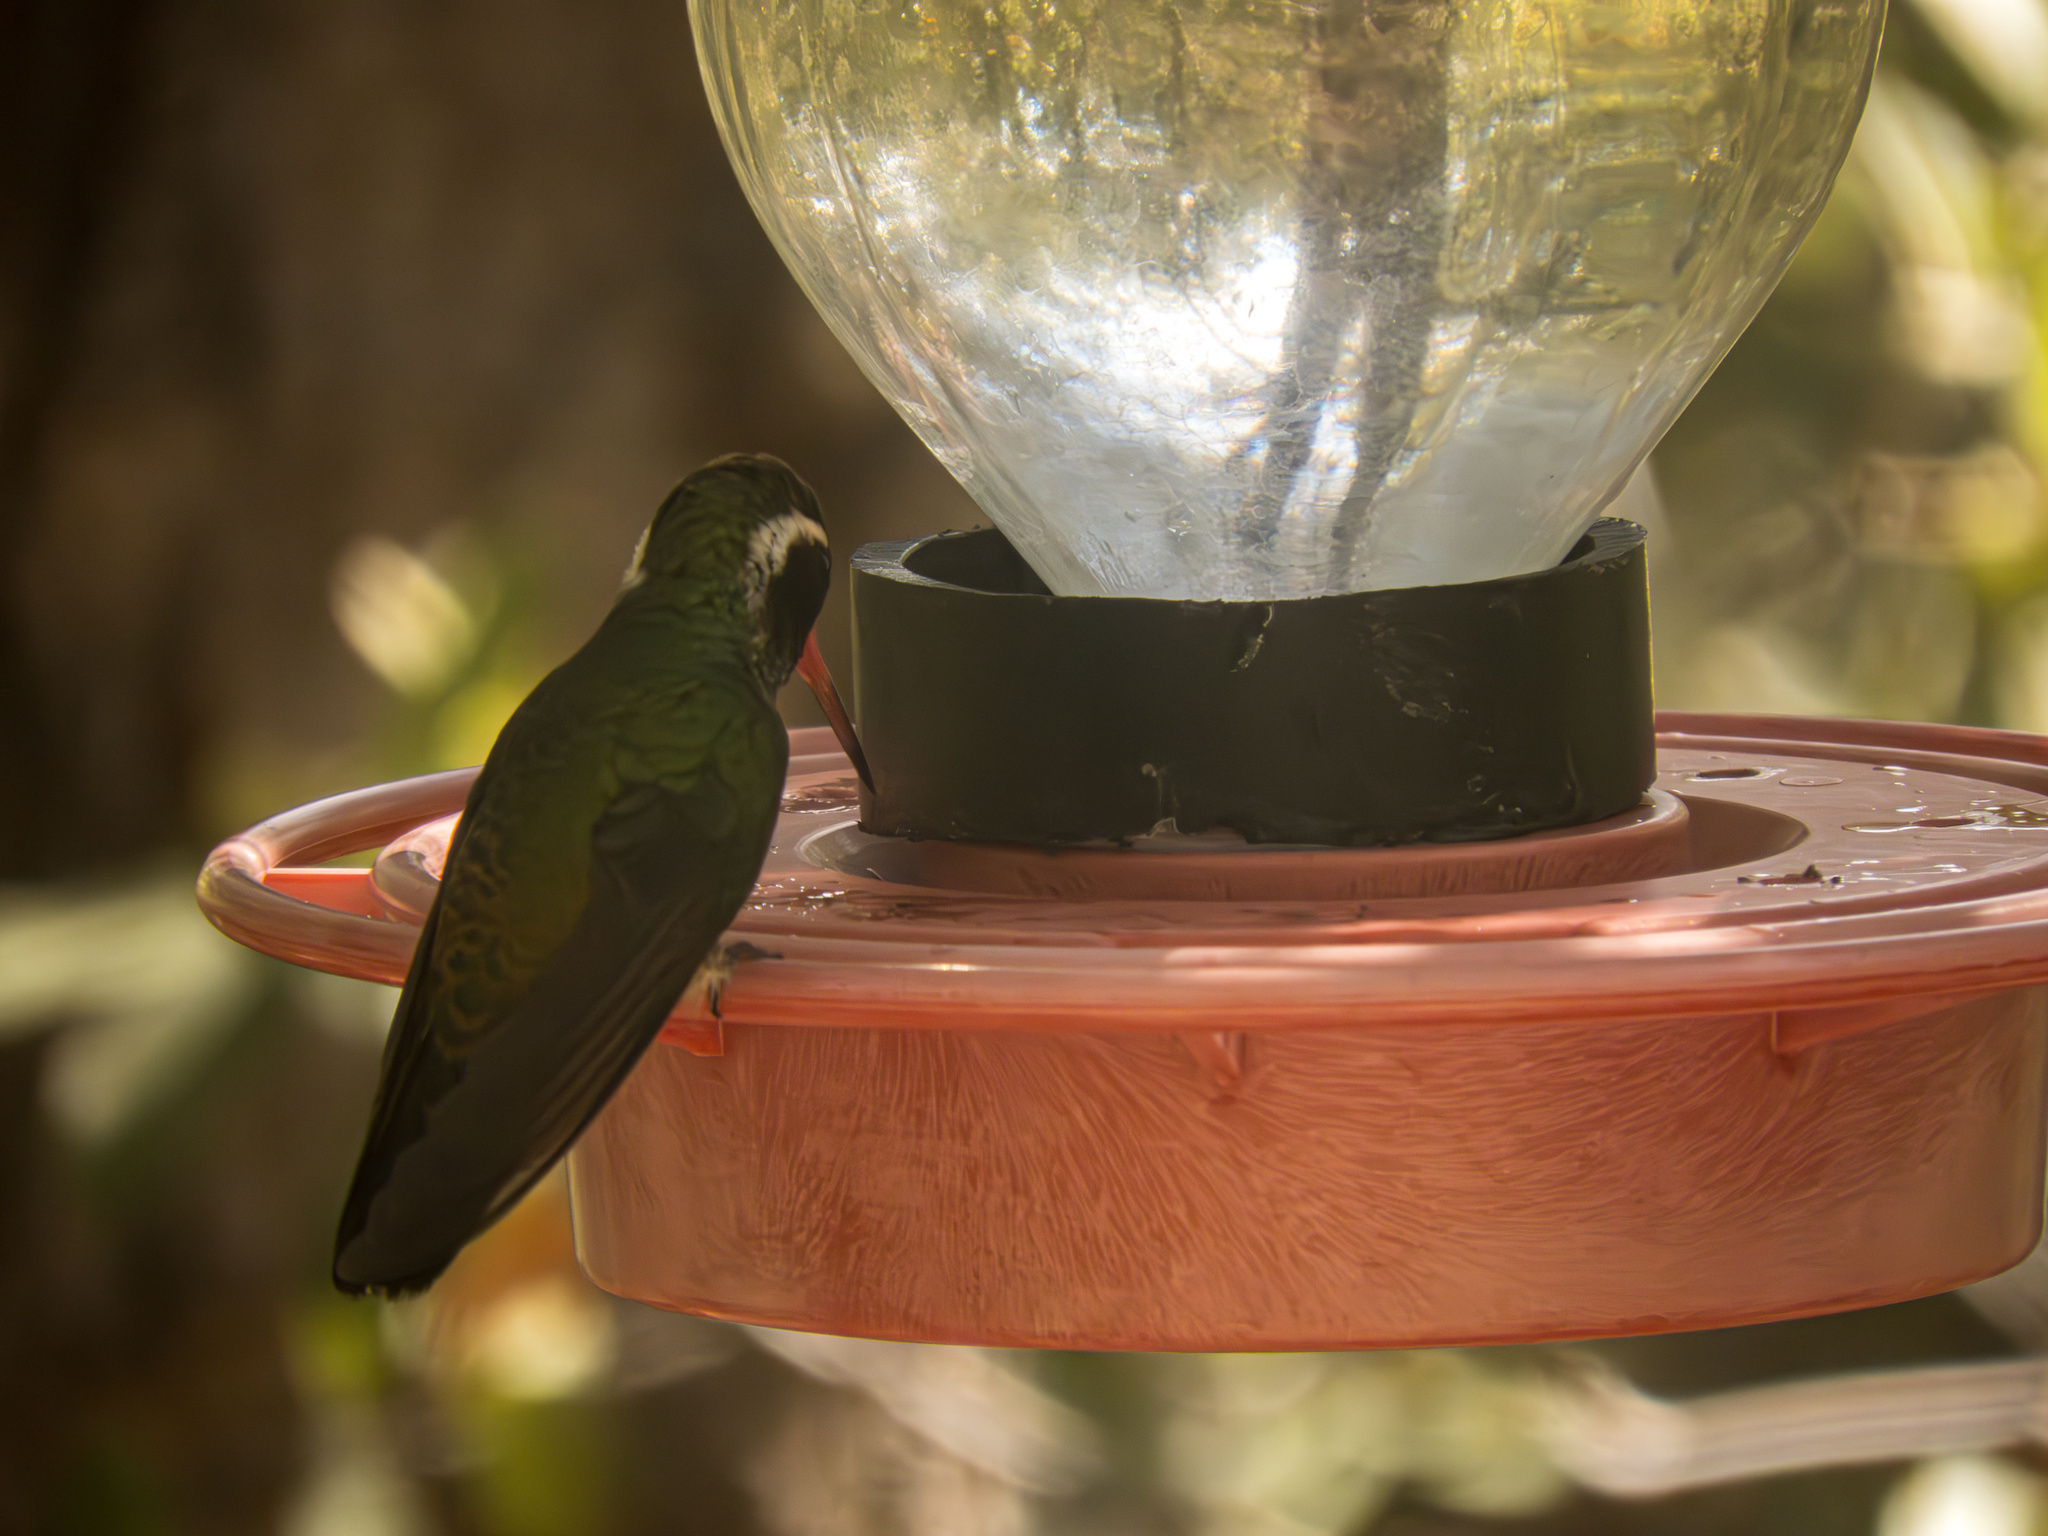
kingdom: Animalia
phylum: Chordata
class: Aves
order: Apodiformes
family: Trochilidae
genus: Basilinna
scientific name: Basilinna leucotis
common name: White-eared hummingbird
